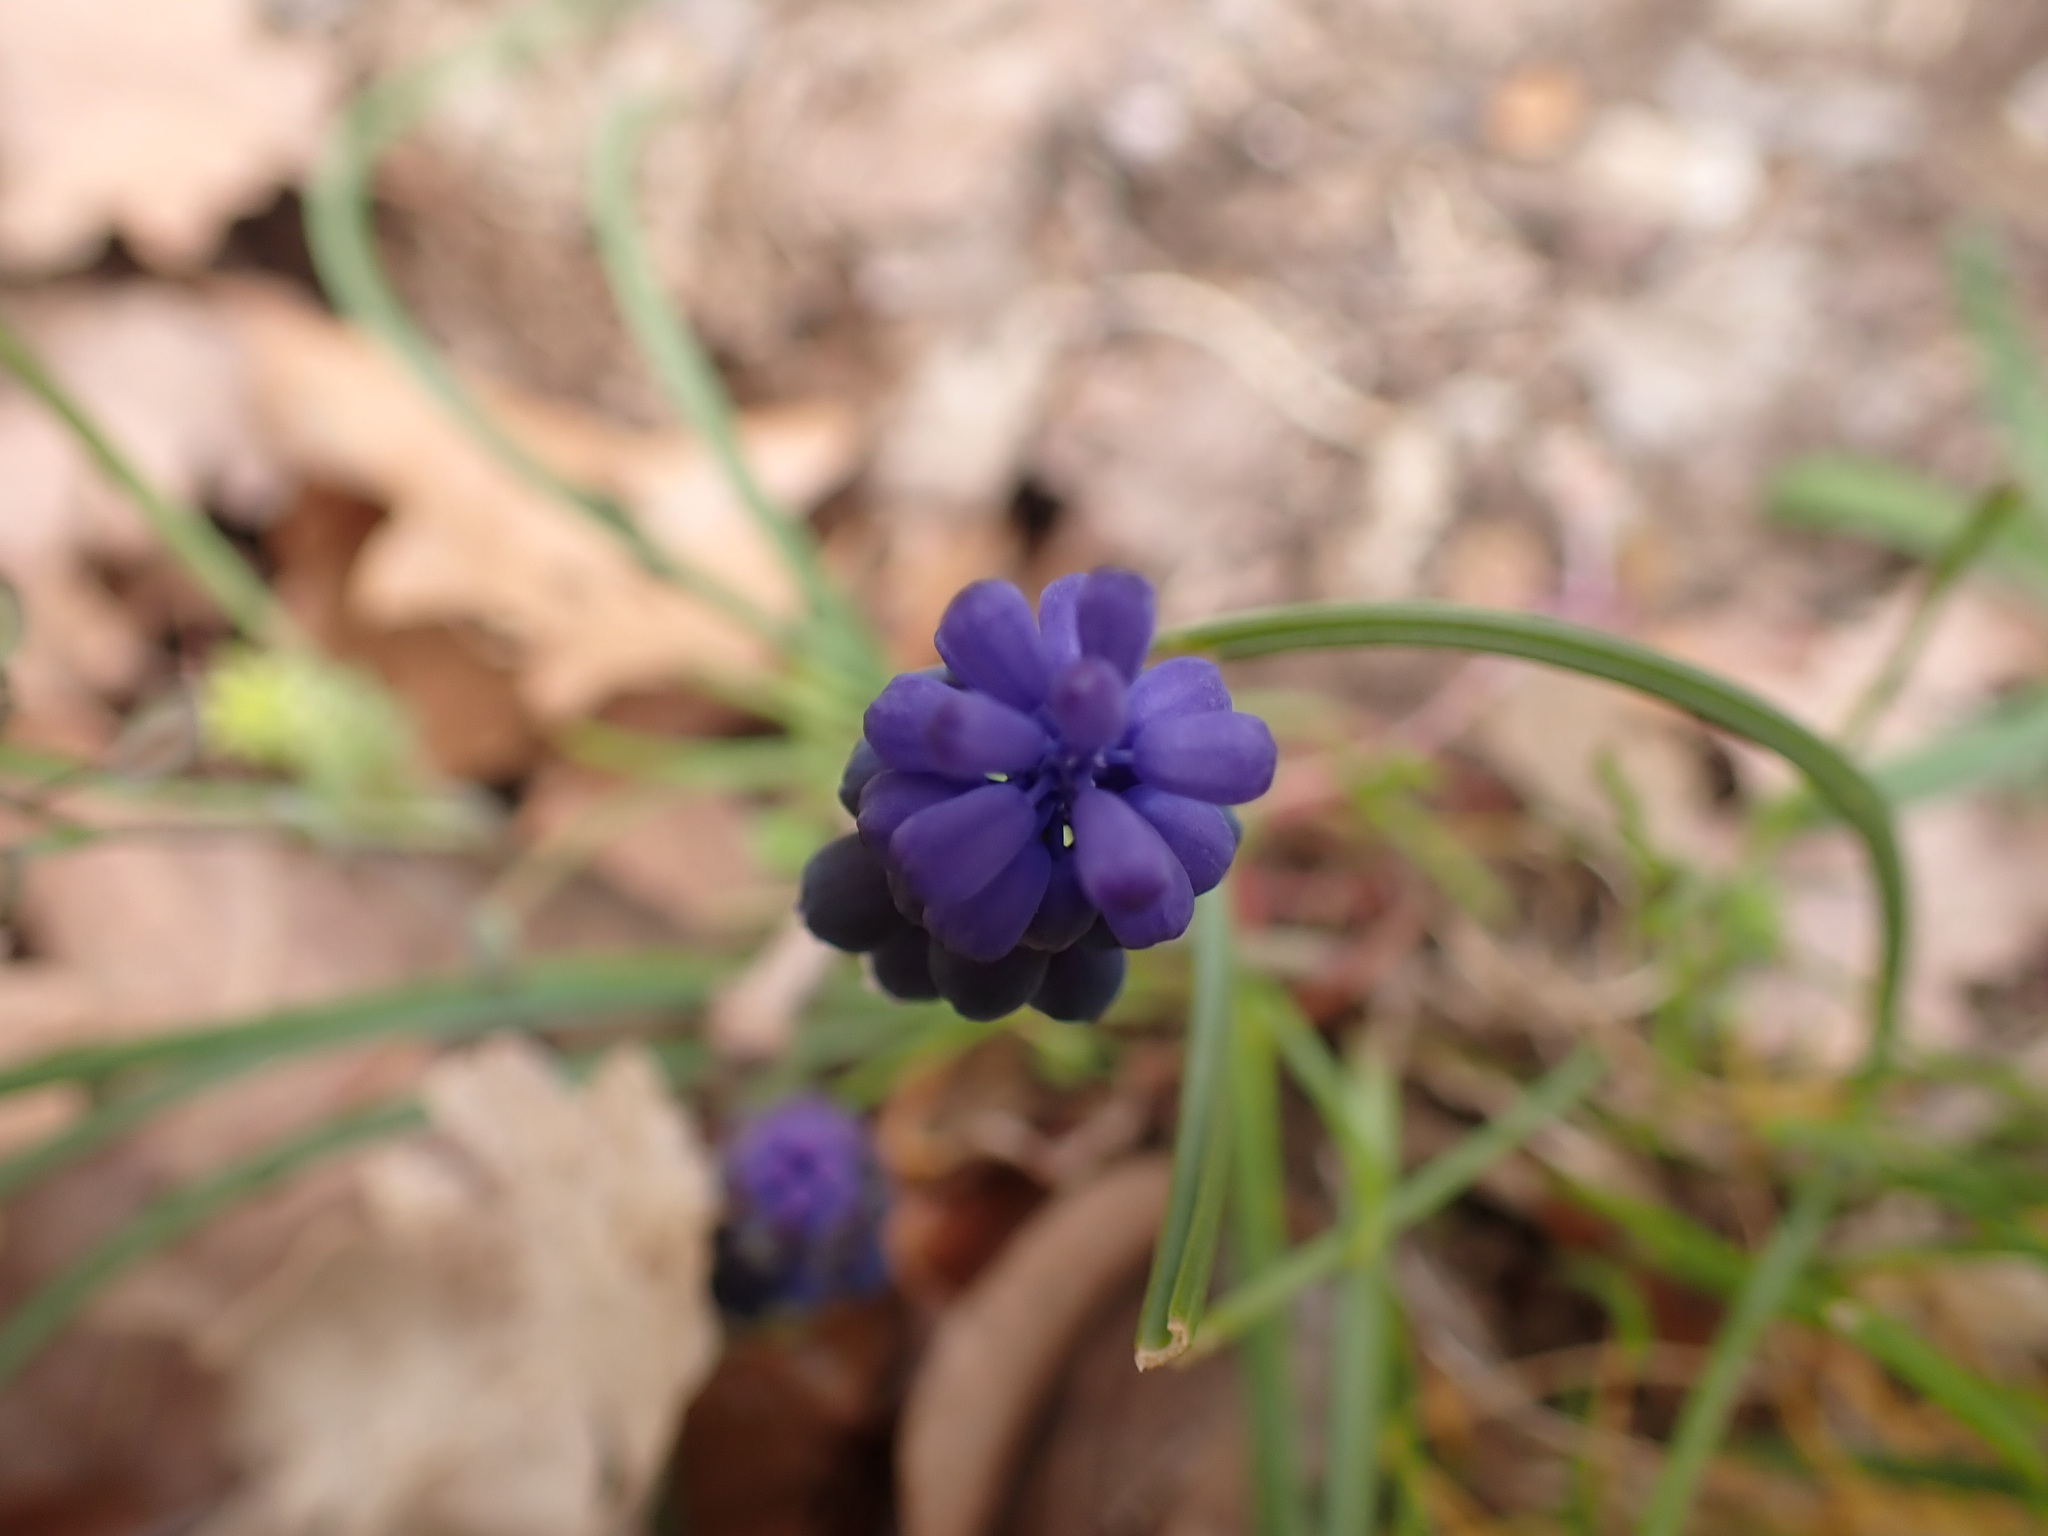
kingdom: Plantae
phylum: Tracheophyta
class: Liliopsida
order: Asparagales
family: Asparagaceae
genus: Muscari
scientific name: Muscari neglectum
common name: Grape-hyacinth
